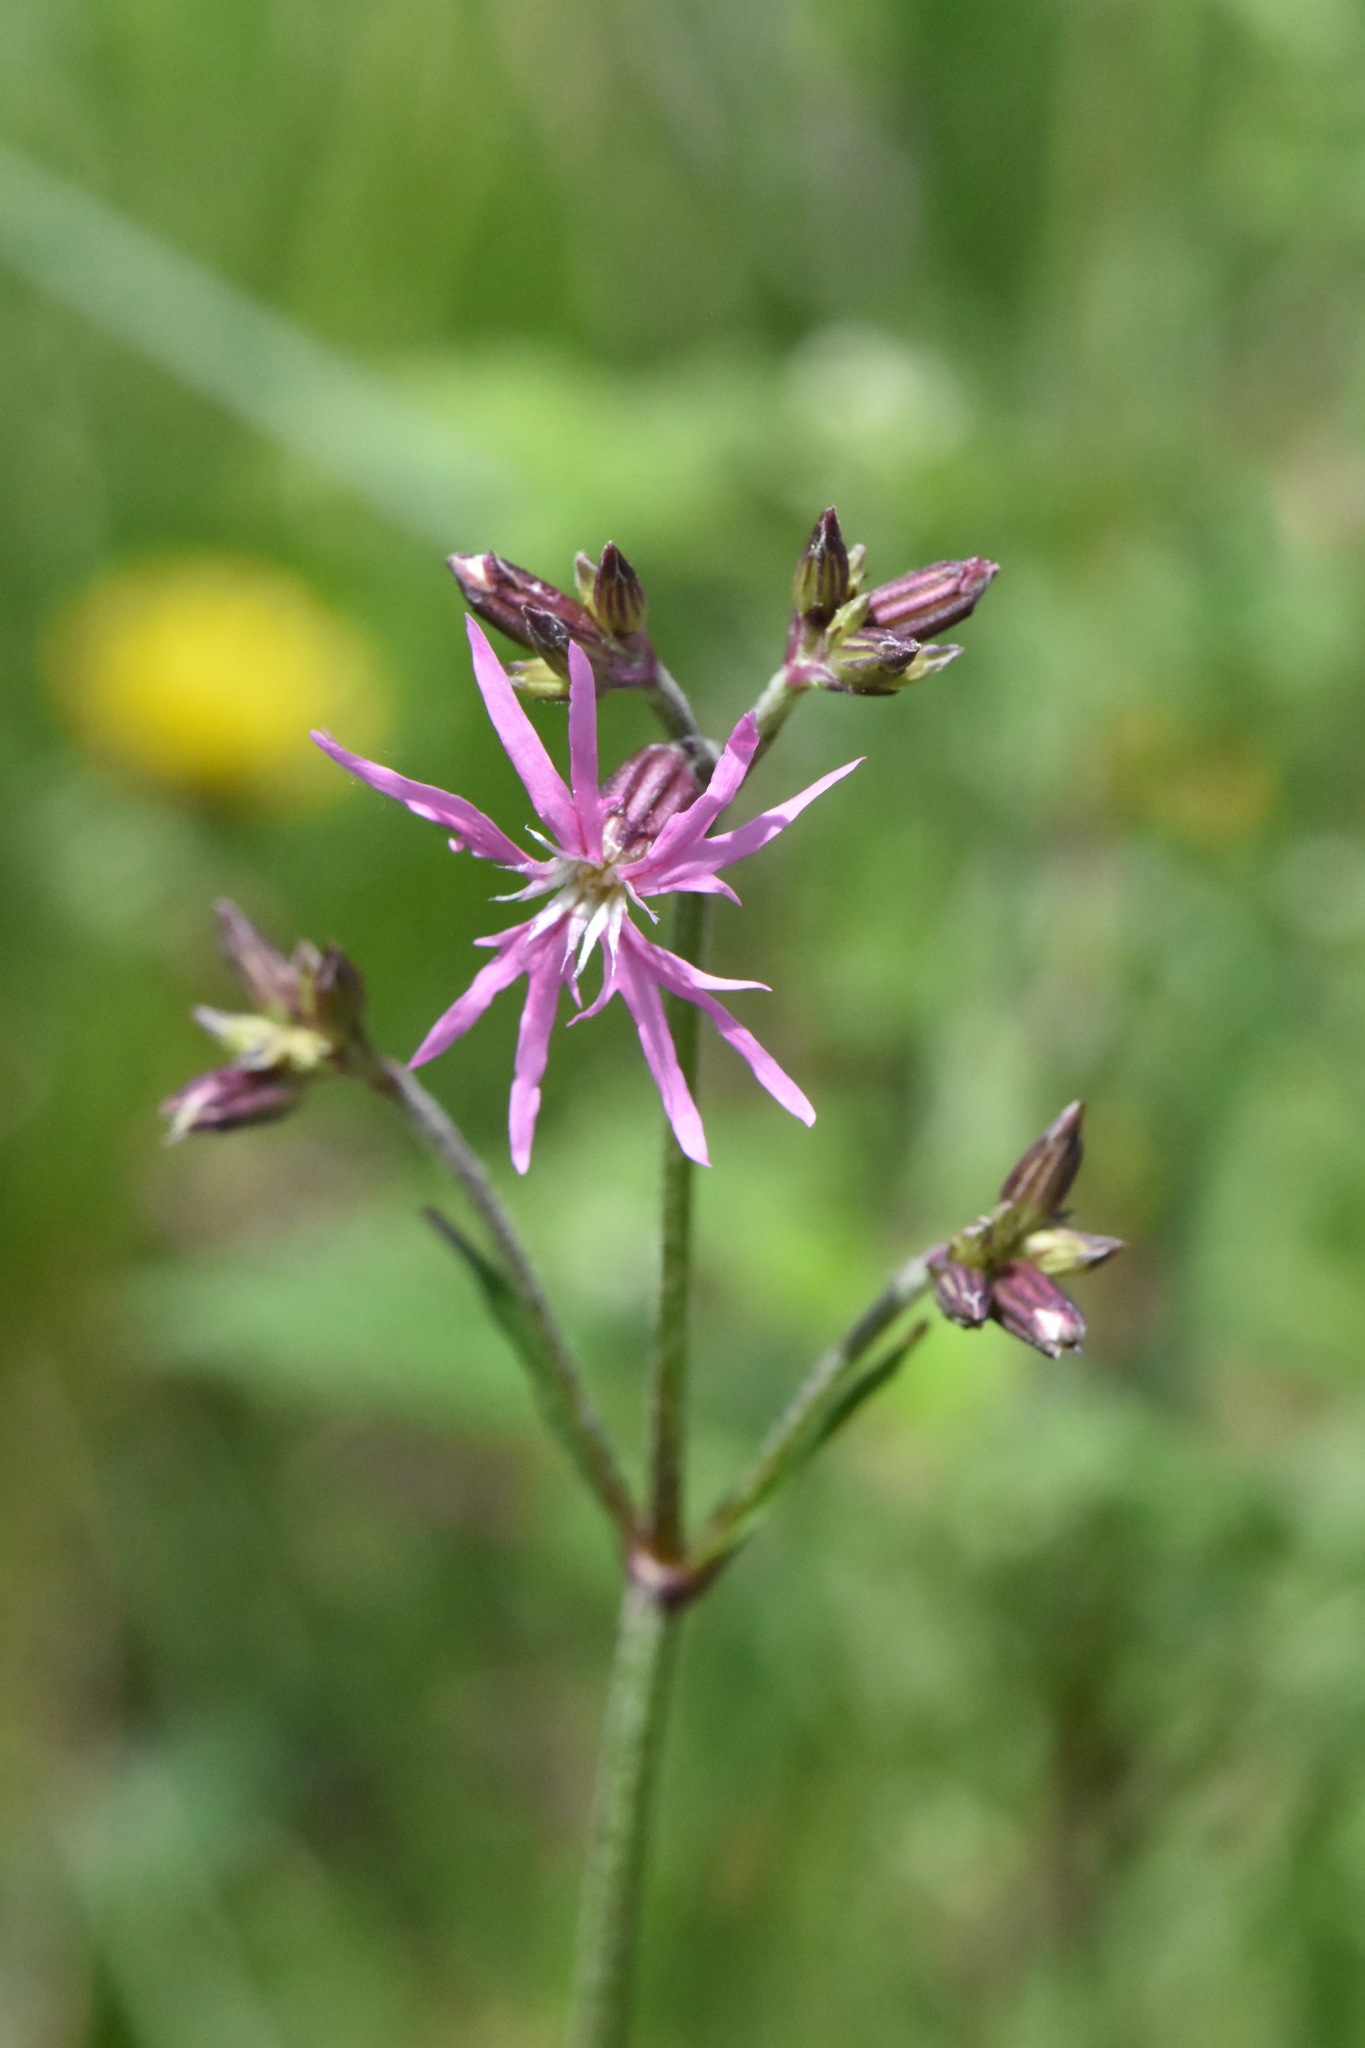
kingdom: Plantae
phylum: Tracheophyta
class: Magnoliopsida
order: Caryophyllales
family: Caryophyllaceae
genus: Silene
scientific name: Silene flos-cuculi
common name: Ragged-robin
